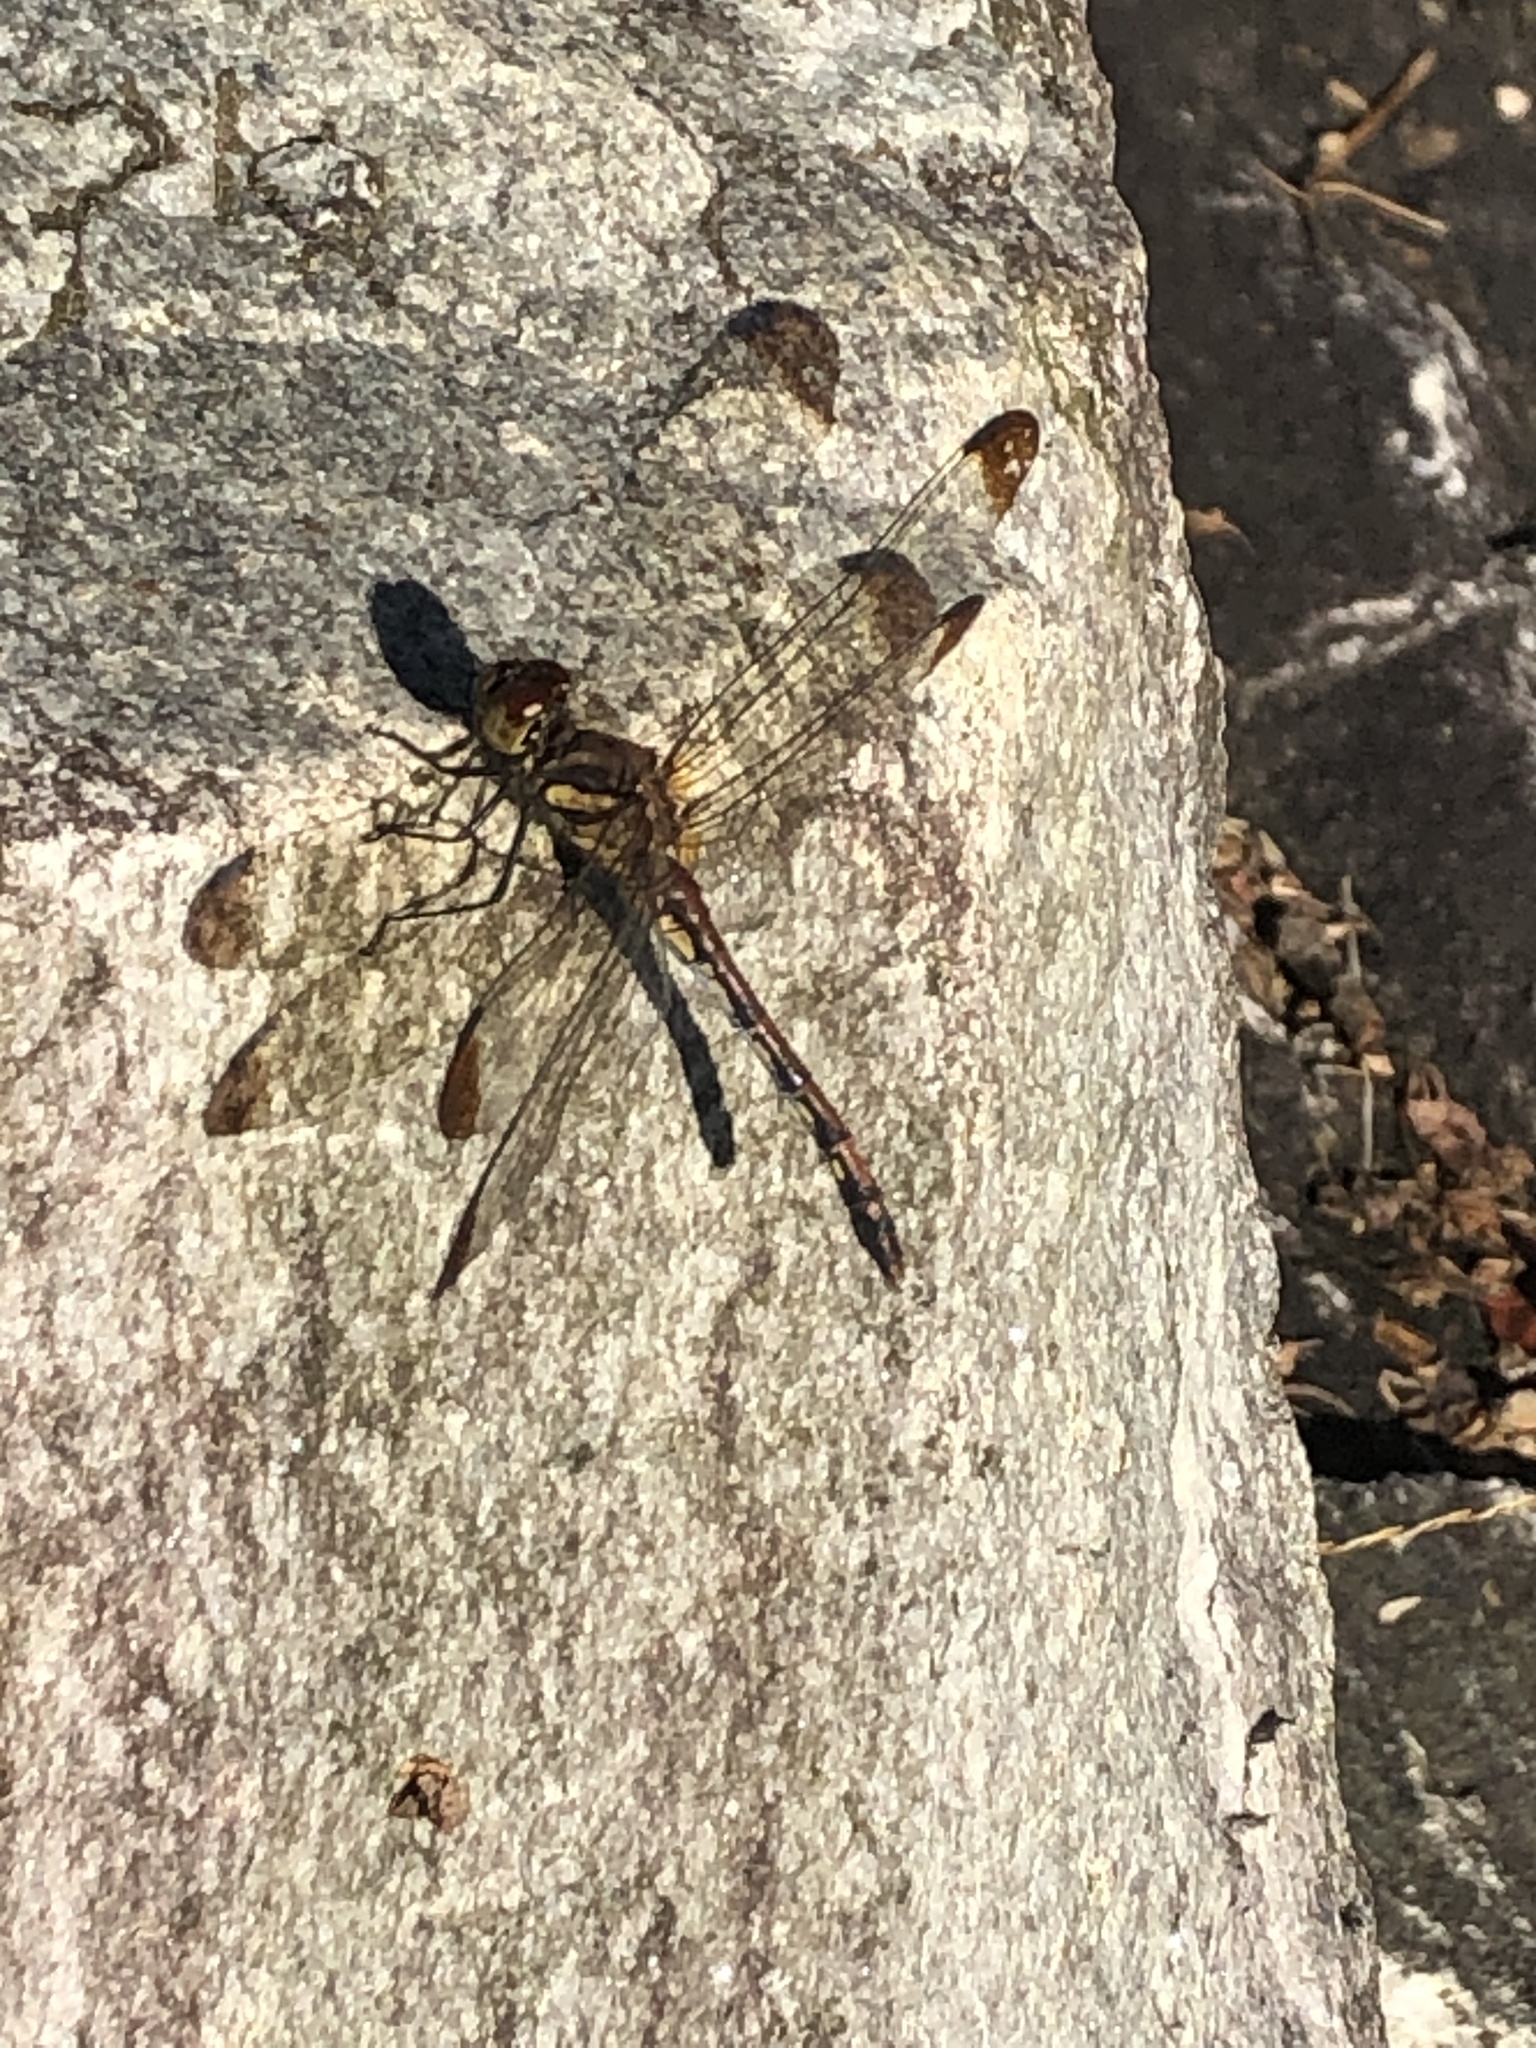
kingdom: Animalia
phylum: Arthropoda
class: Insecta
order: Odonata
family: Libellulidae
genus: Sympetrum
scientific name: Sympetrum infuscatum
